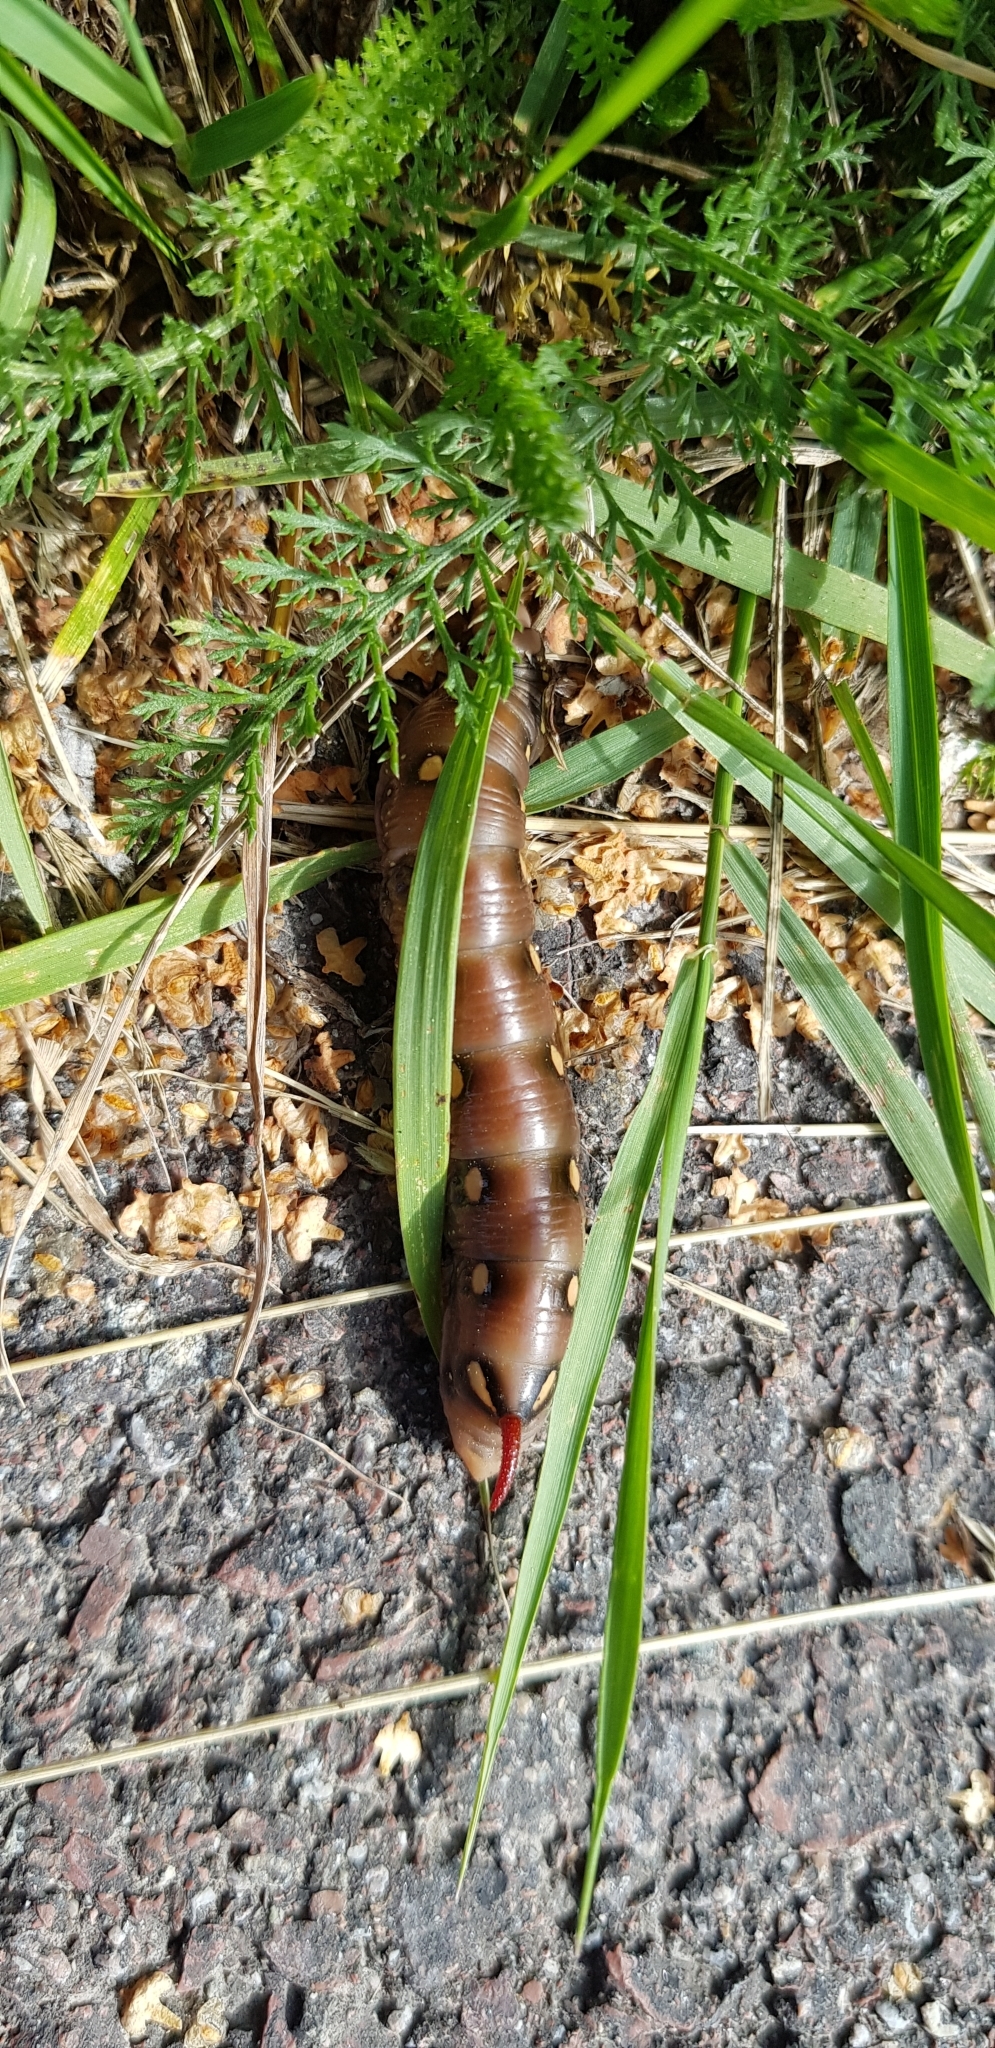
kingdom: Animalia
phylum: Arthropoda
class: Insecta
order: Lepidoptera
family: Sphingidae
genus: Hyles
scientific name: Hyles gallii
